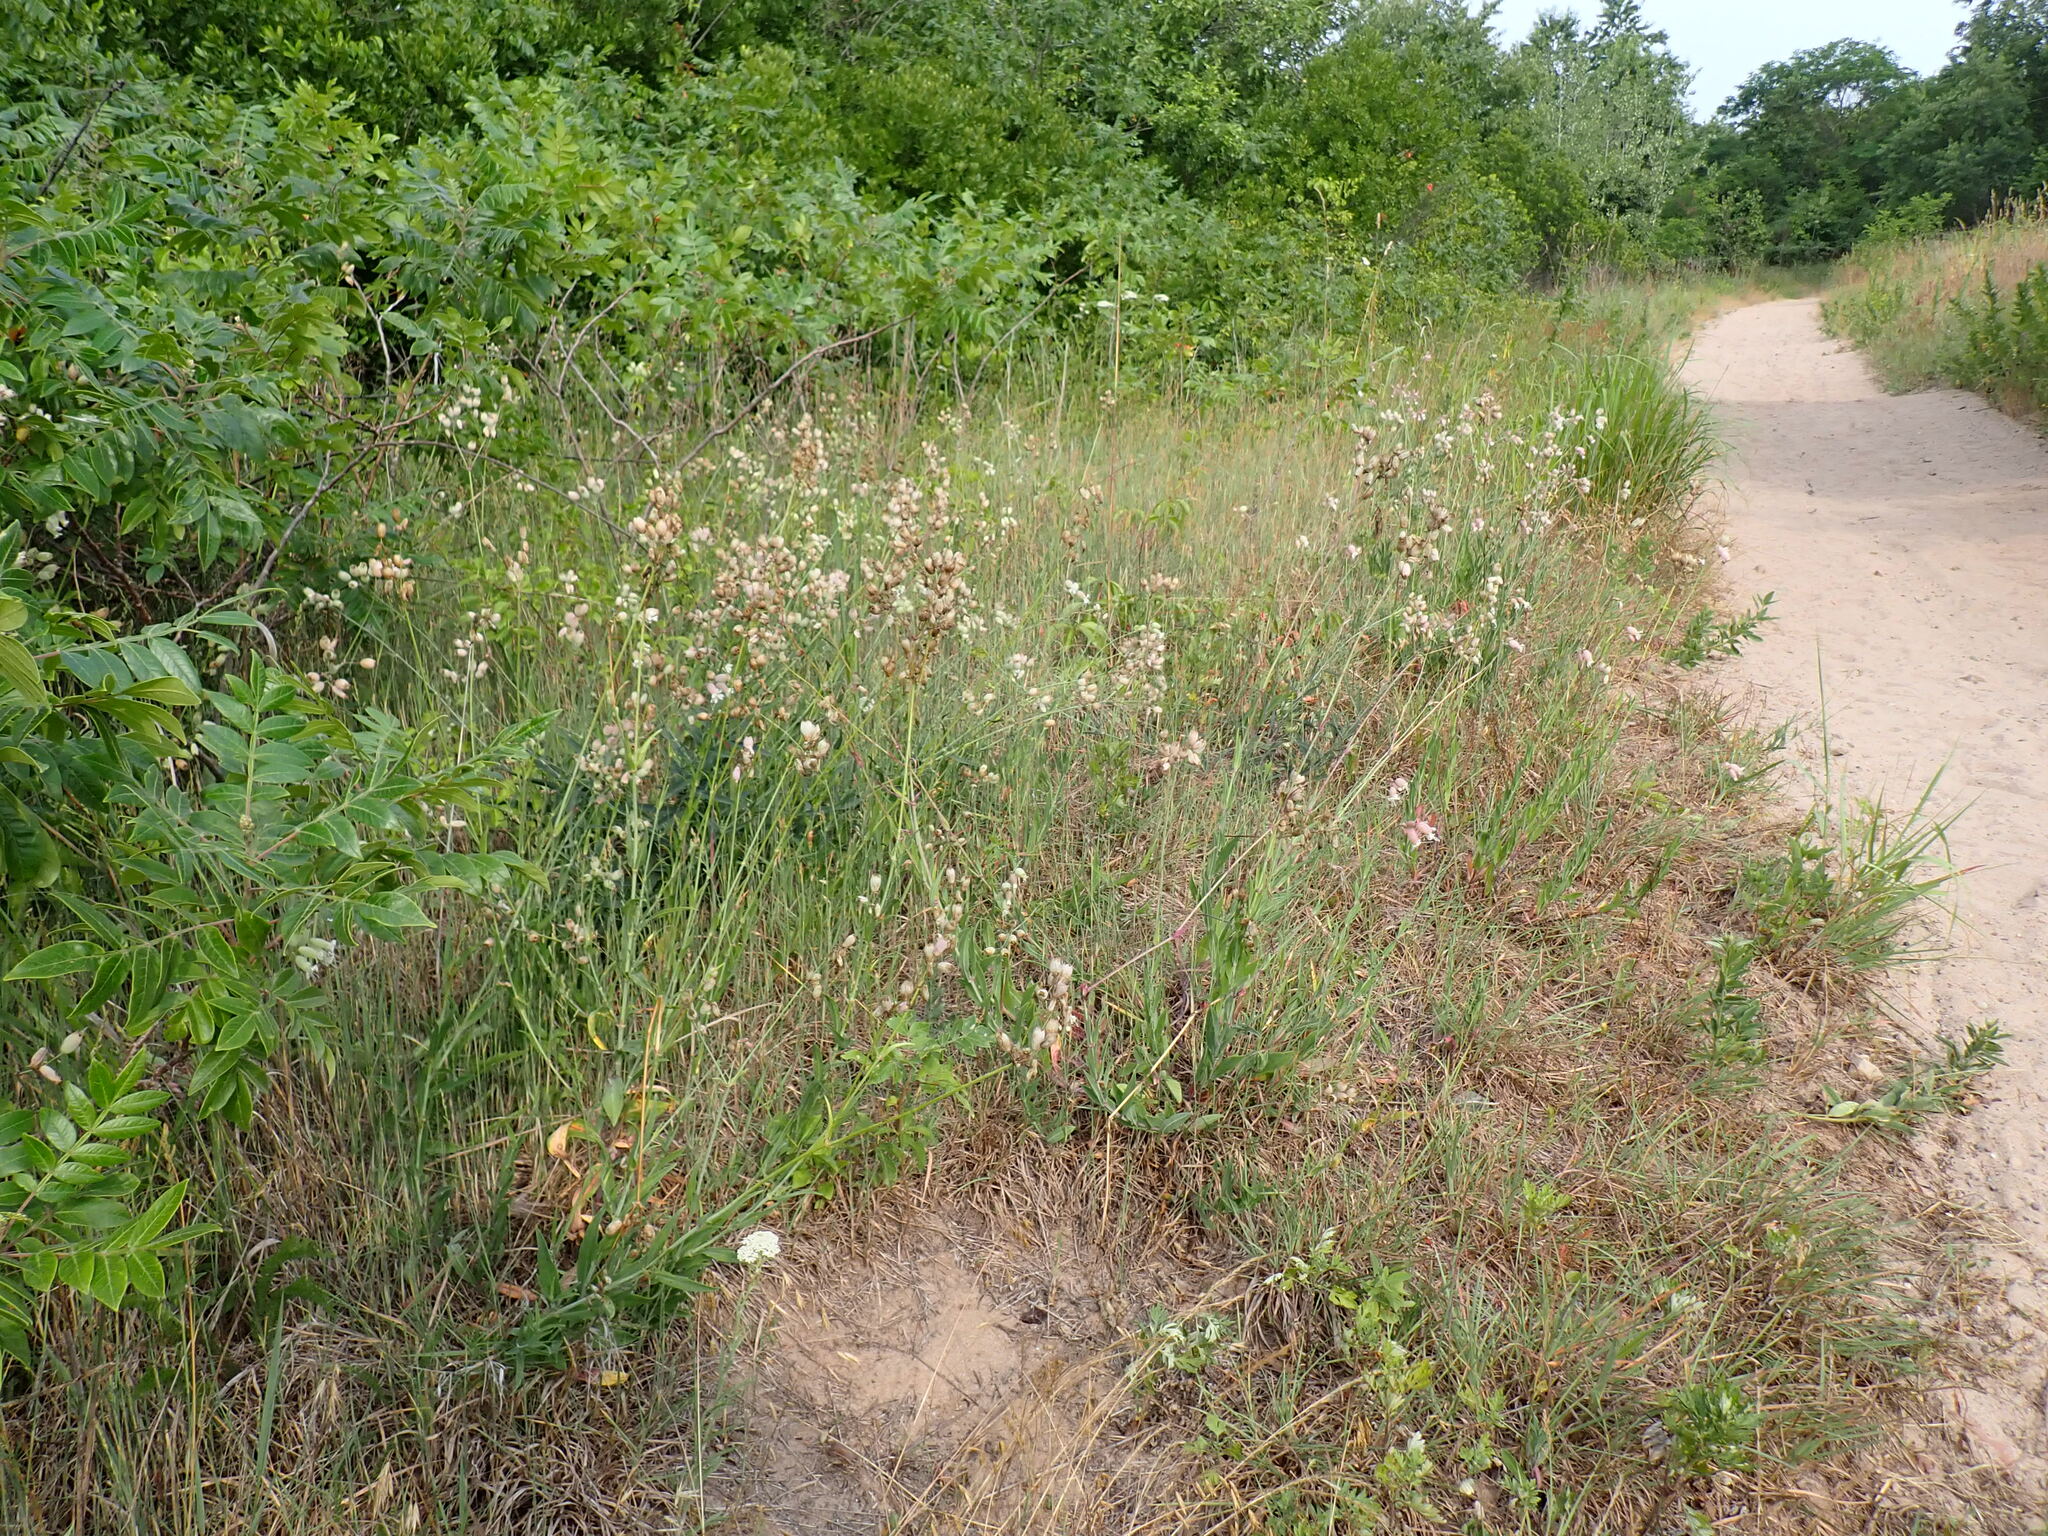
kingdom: Plantae
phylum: Tracheophyta
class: Magnoliopsida
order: Caryophyllales
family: Caryophyllaceae
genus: Silene
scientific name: Silene vulgaris
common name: Bladder campion
